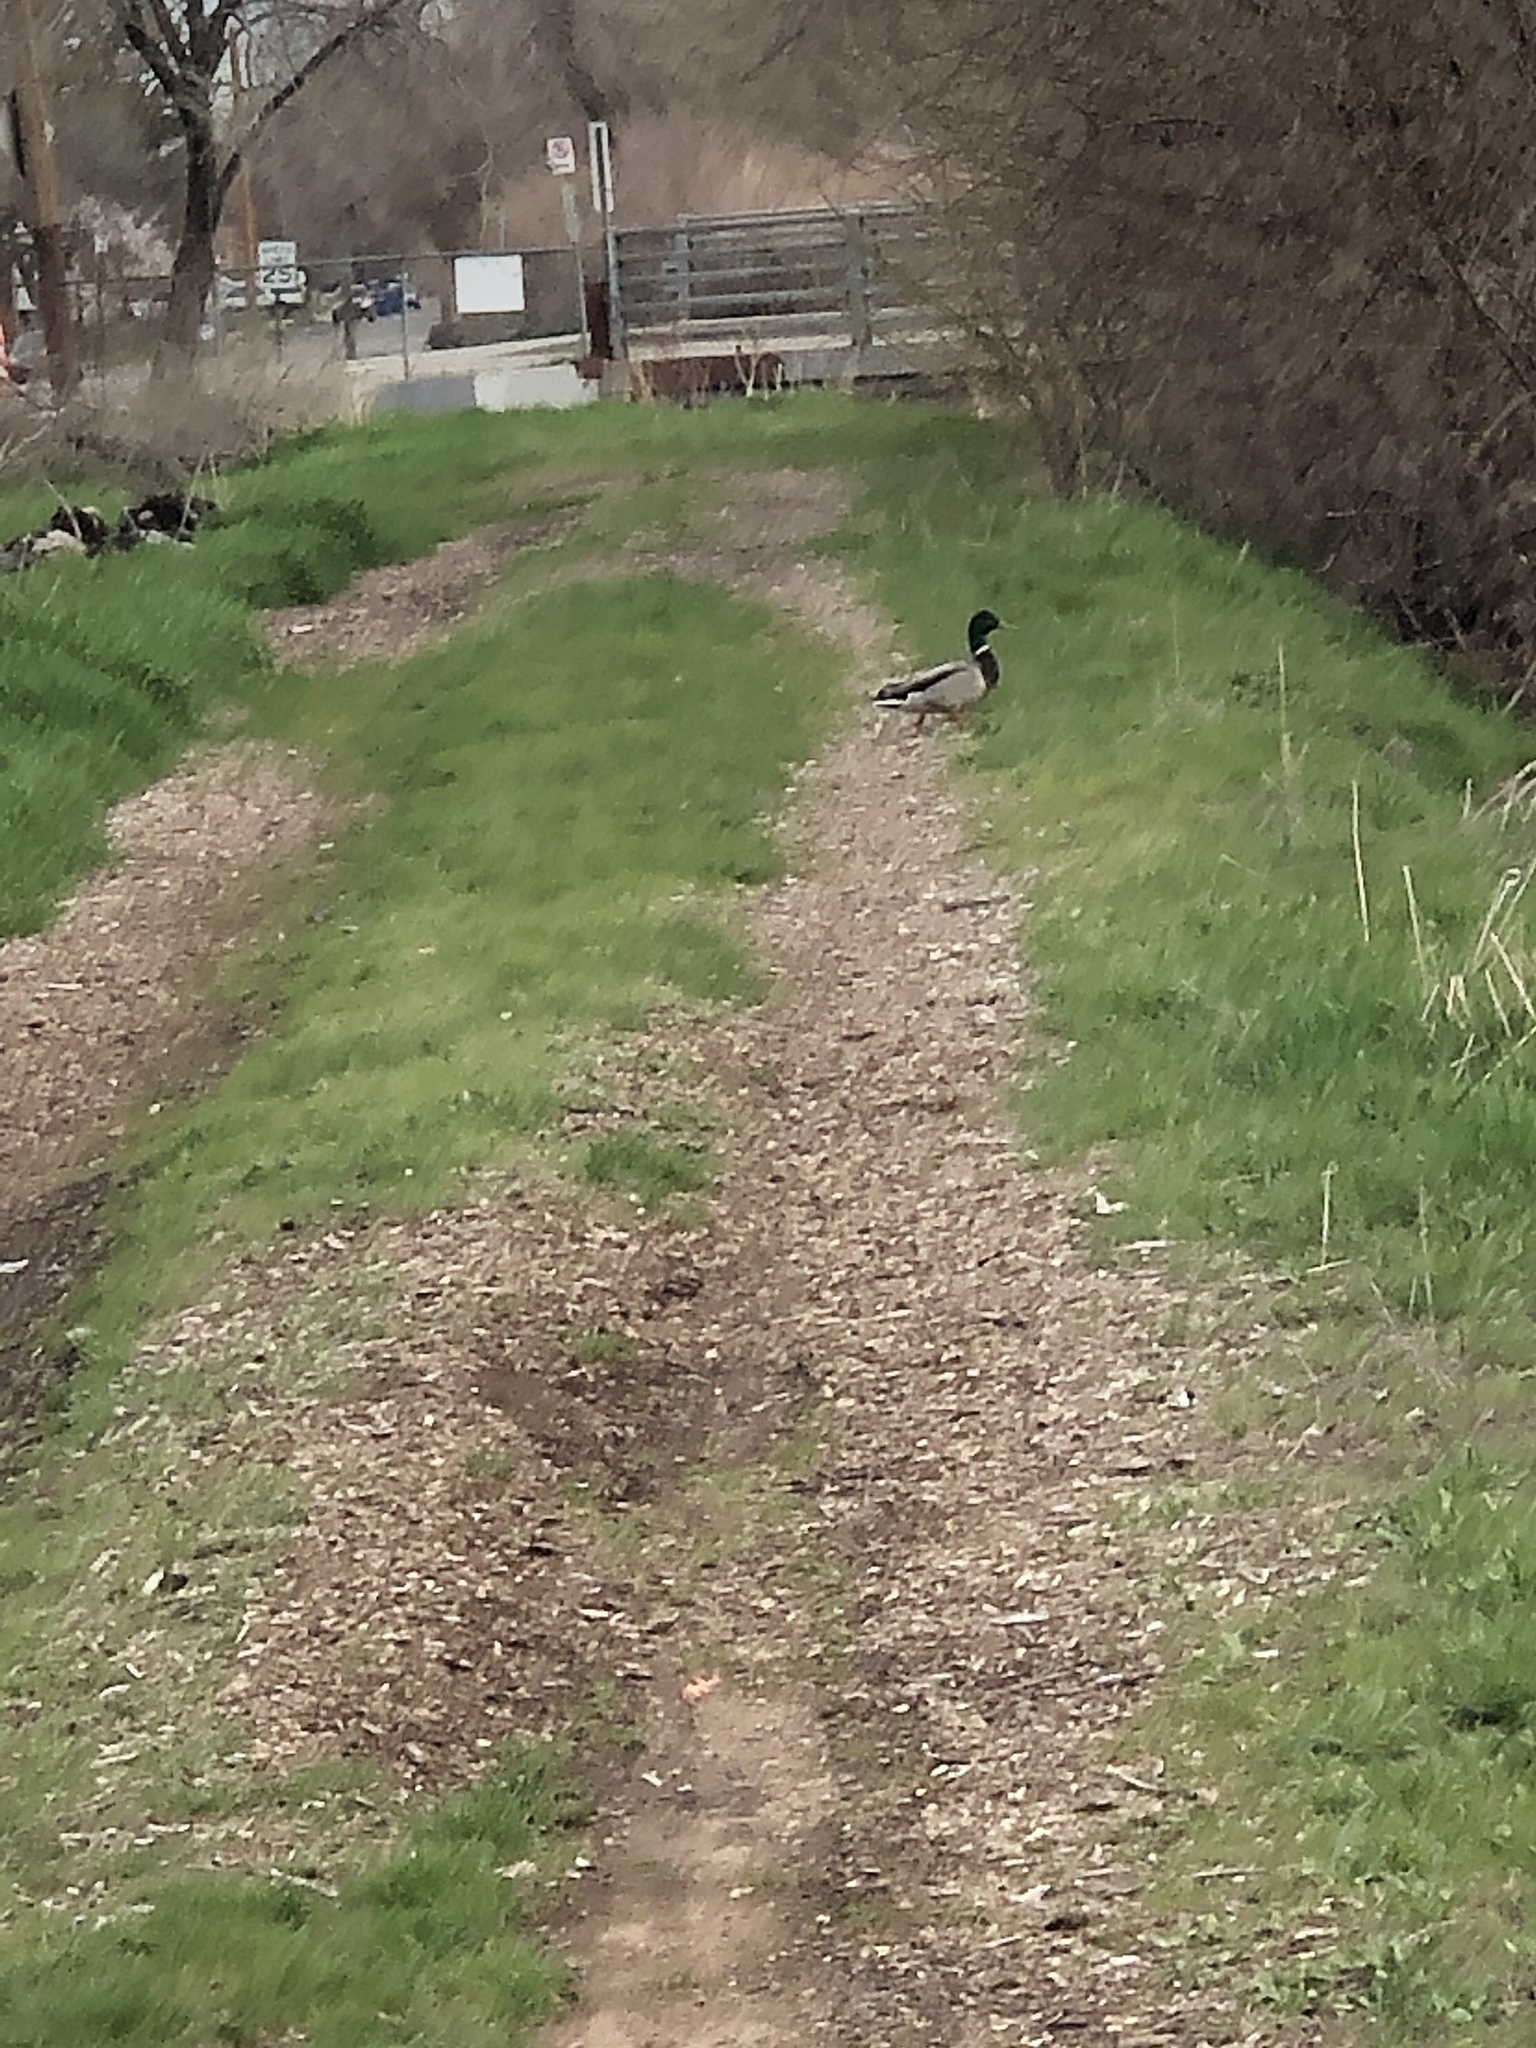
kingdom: Animalia
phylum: Chordata
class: Aves
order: Anseriformes
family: Anatidae
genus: Anas
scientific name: Anas platyrhynchos
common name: Mallard
